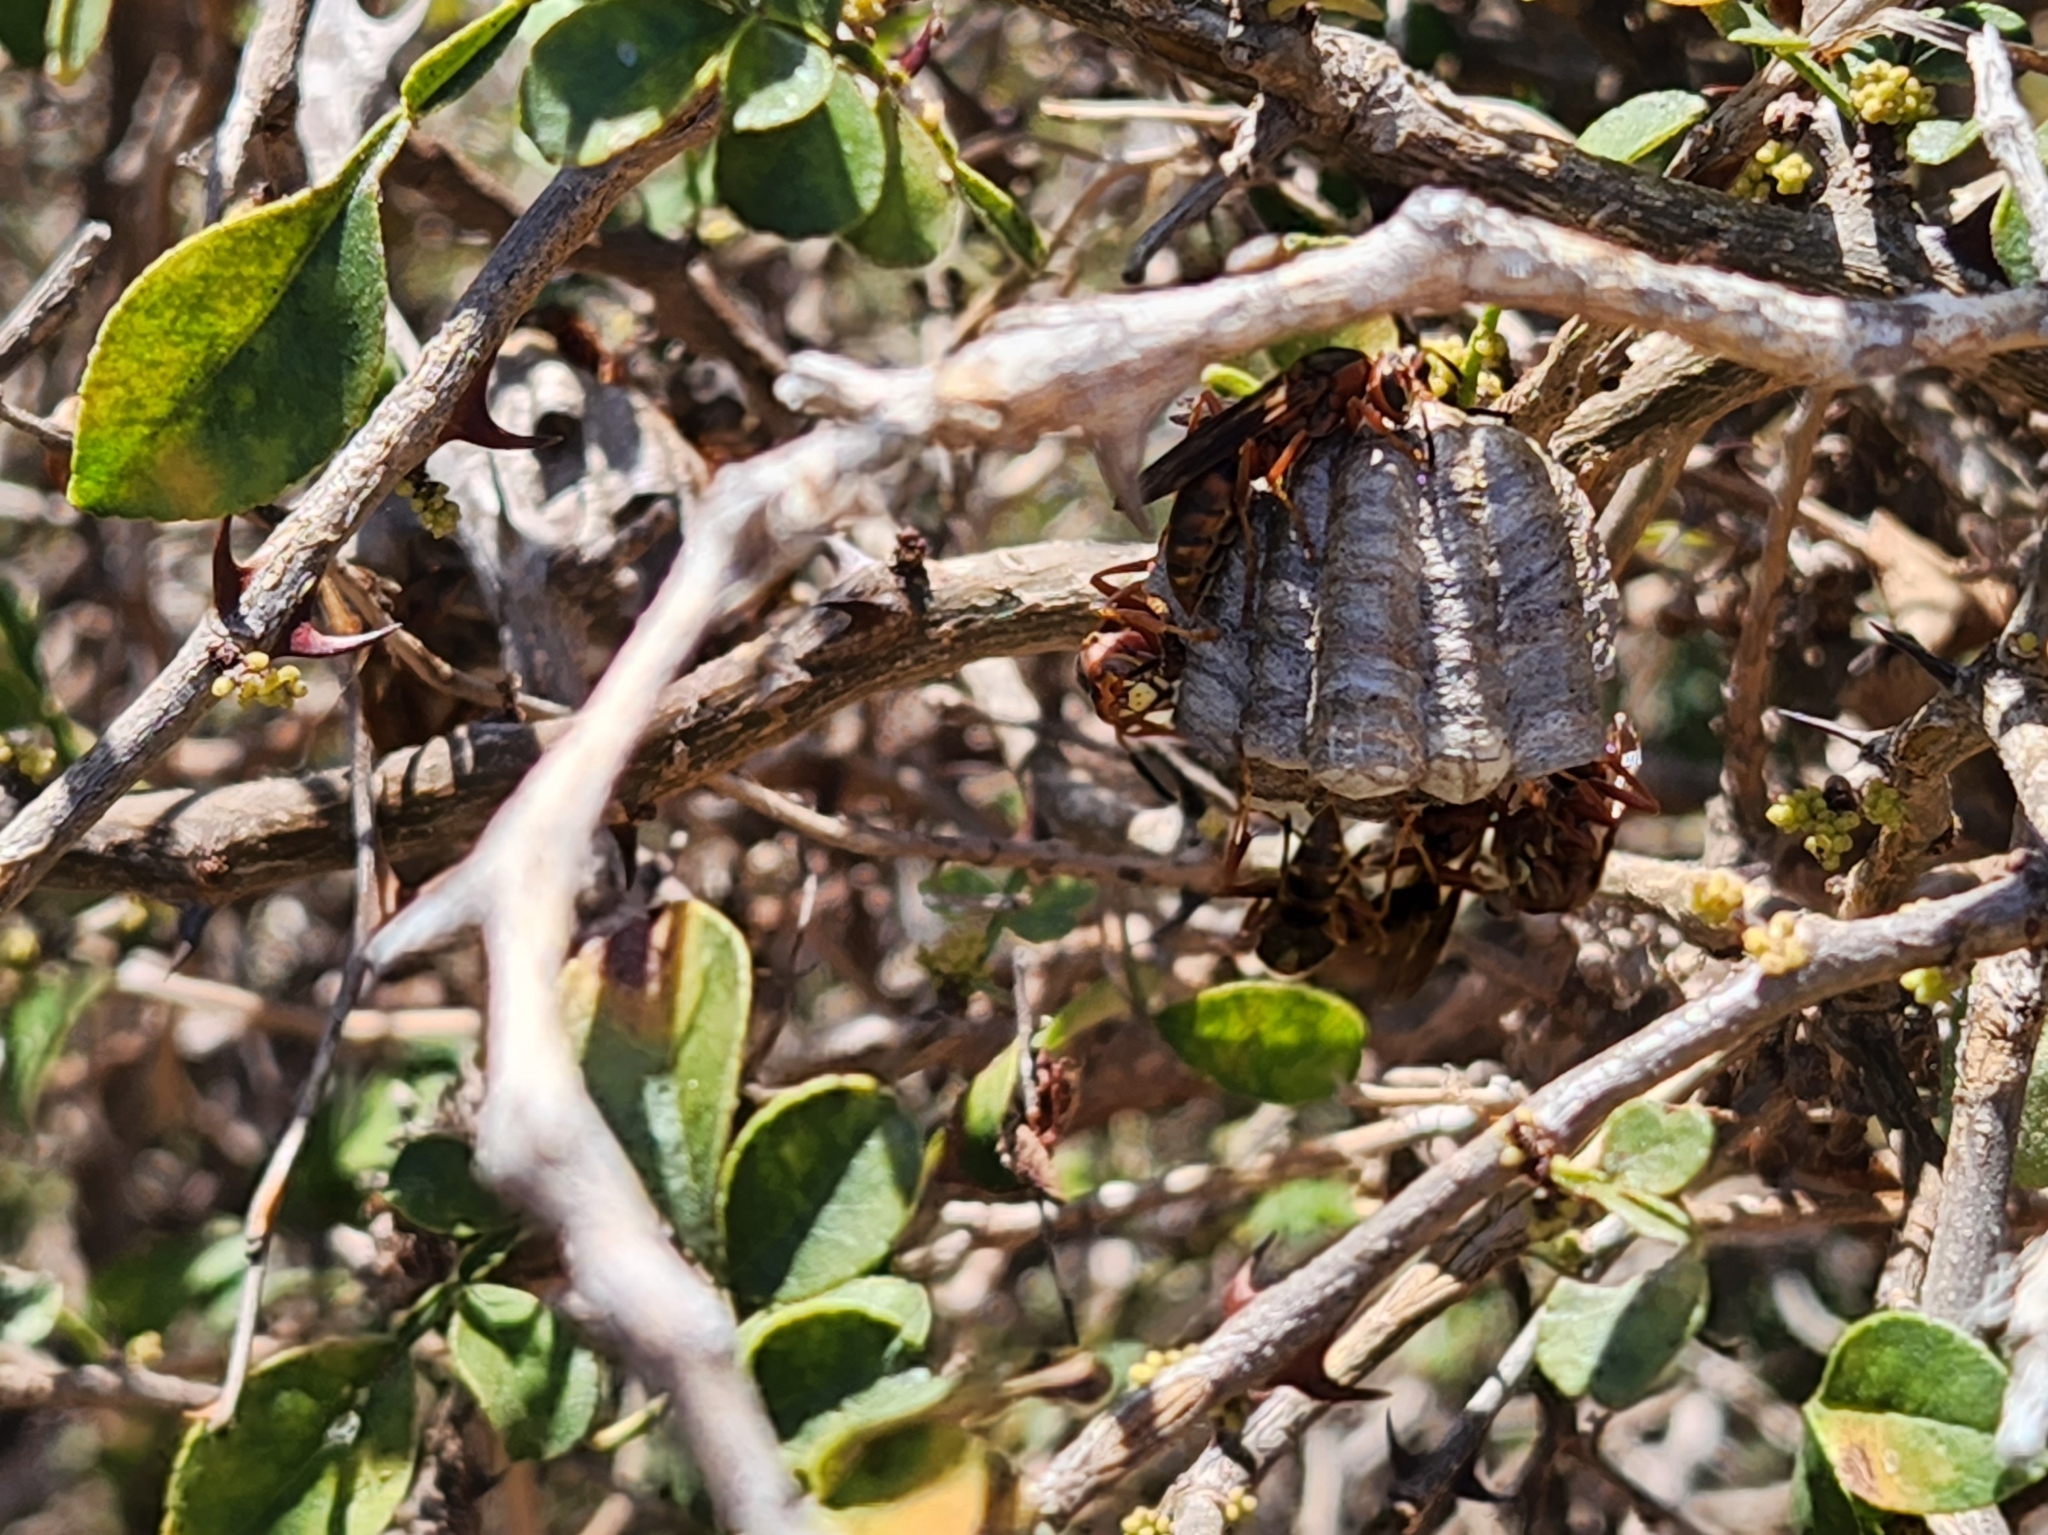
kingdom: Plantae
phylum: Tracheophyta
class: Magnoliopsida
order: Sapindales
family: Rutaceae
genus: Zanthoxylum
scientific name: Zanthoxylum fagara
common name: Lime prickly-ash
